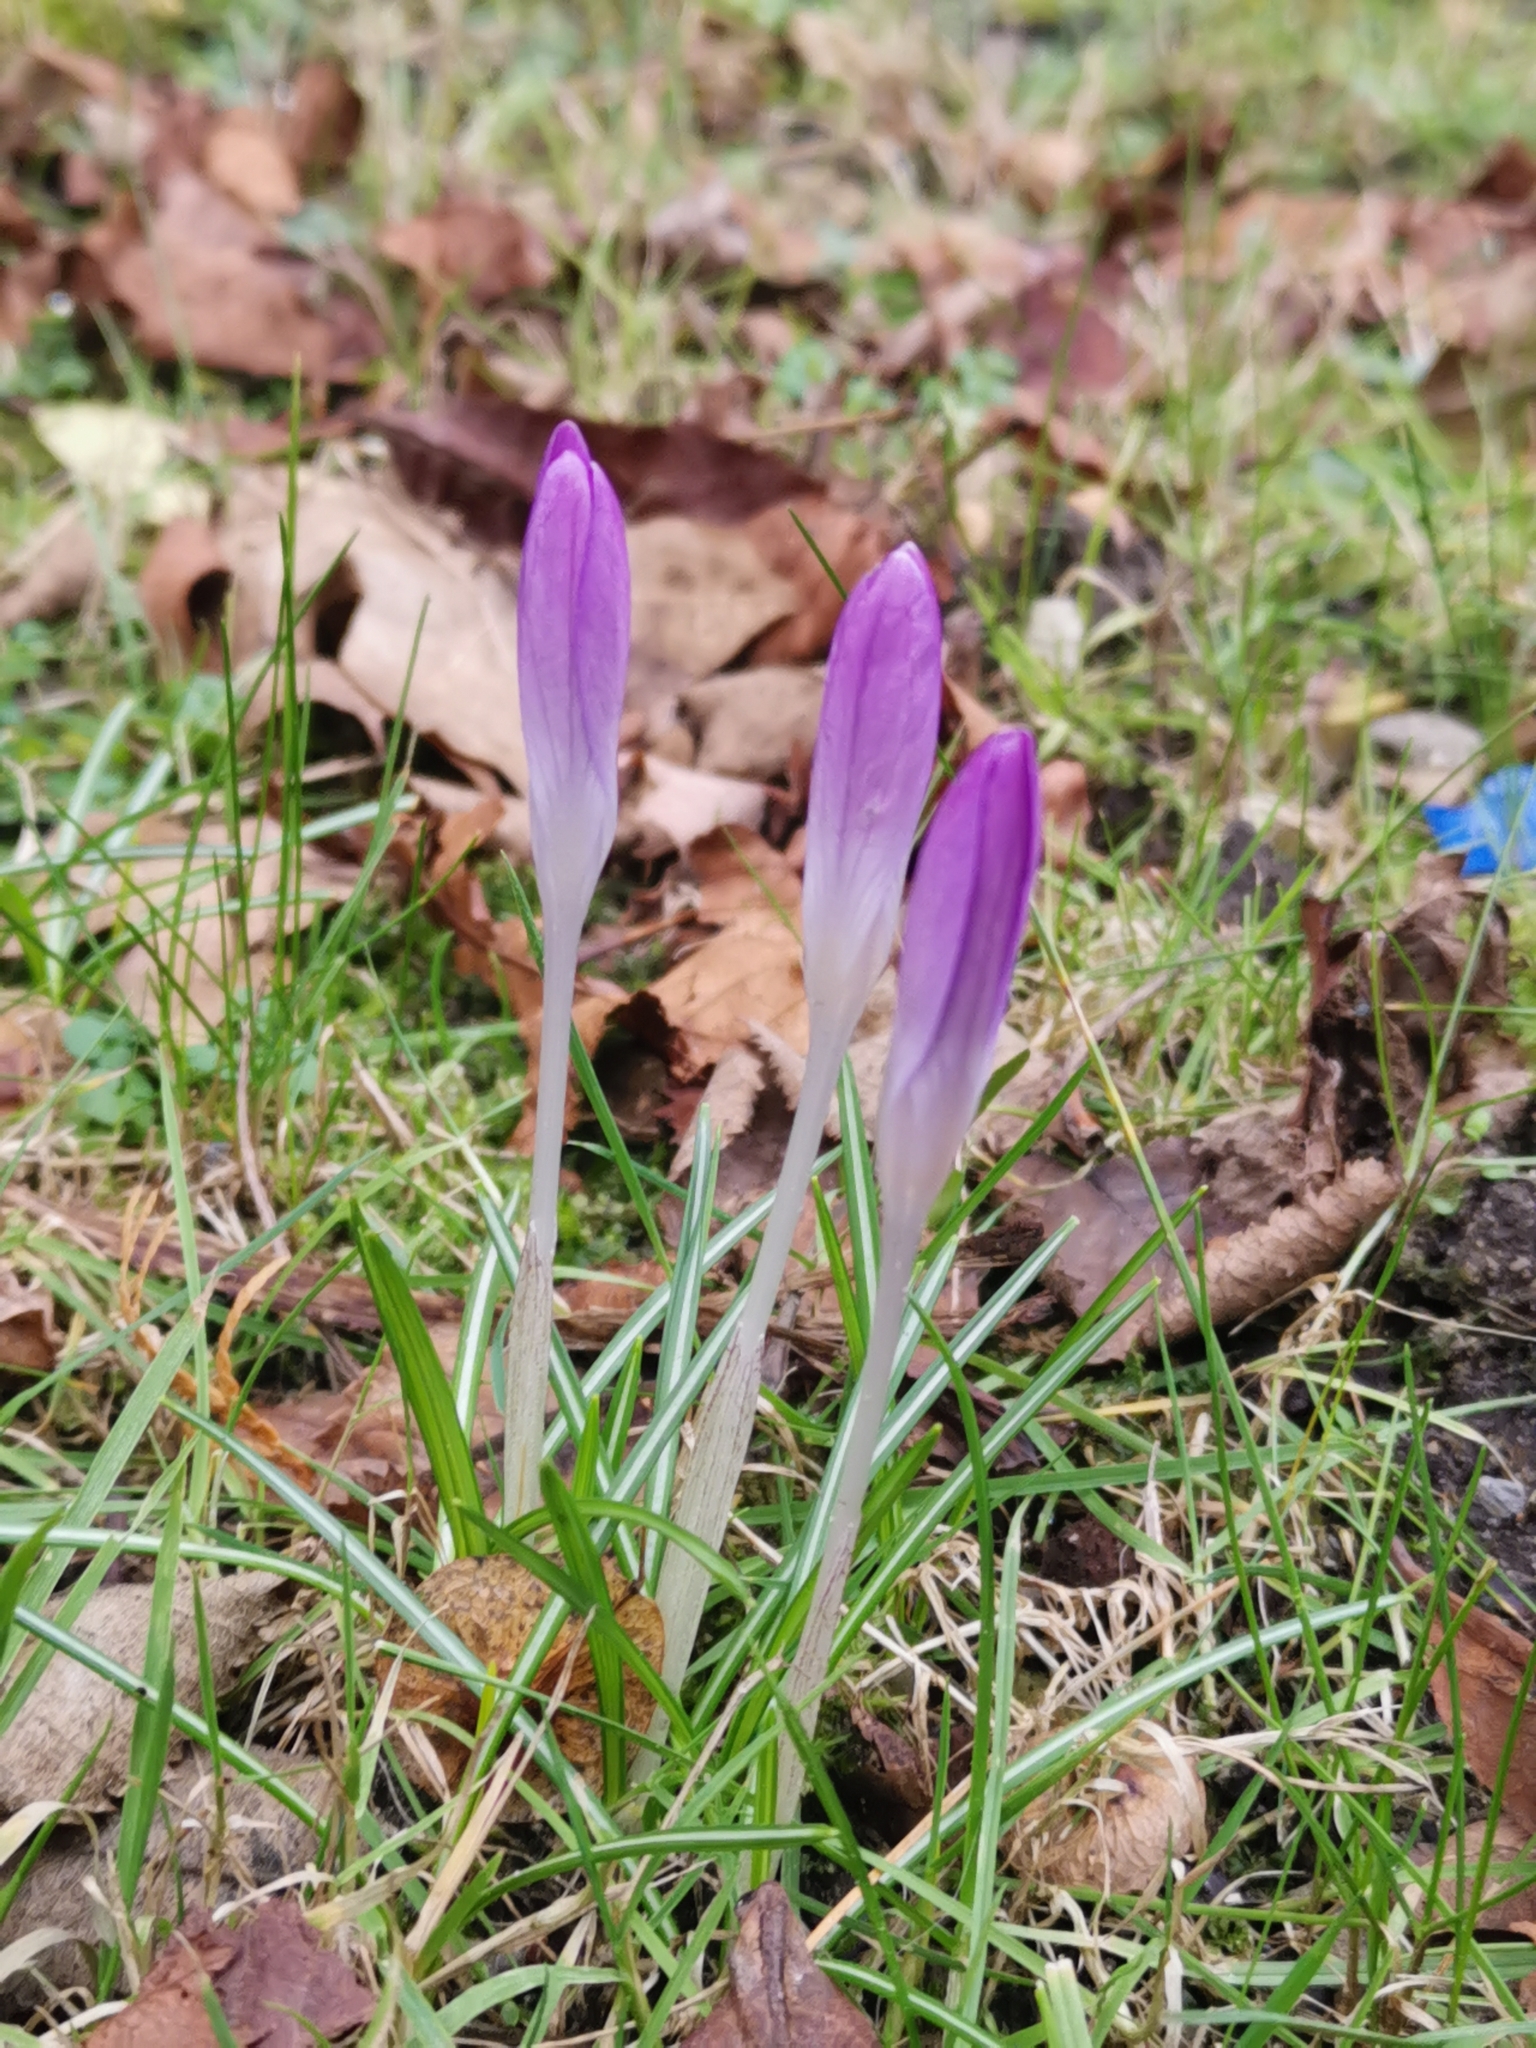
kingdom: Plantae
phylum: Tracheophyta
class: Liliopsida
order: Asparagales
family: Iridaceae
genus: Crocus
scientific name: Crocus tommasinianus
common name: Early crocus
